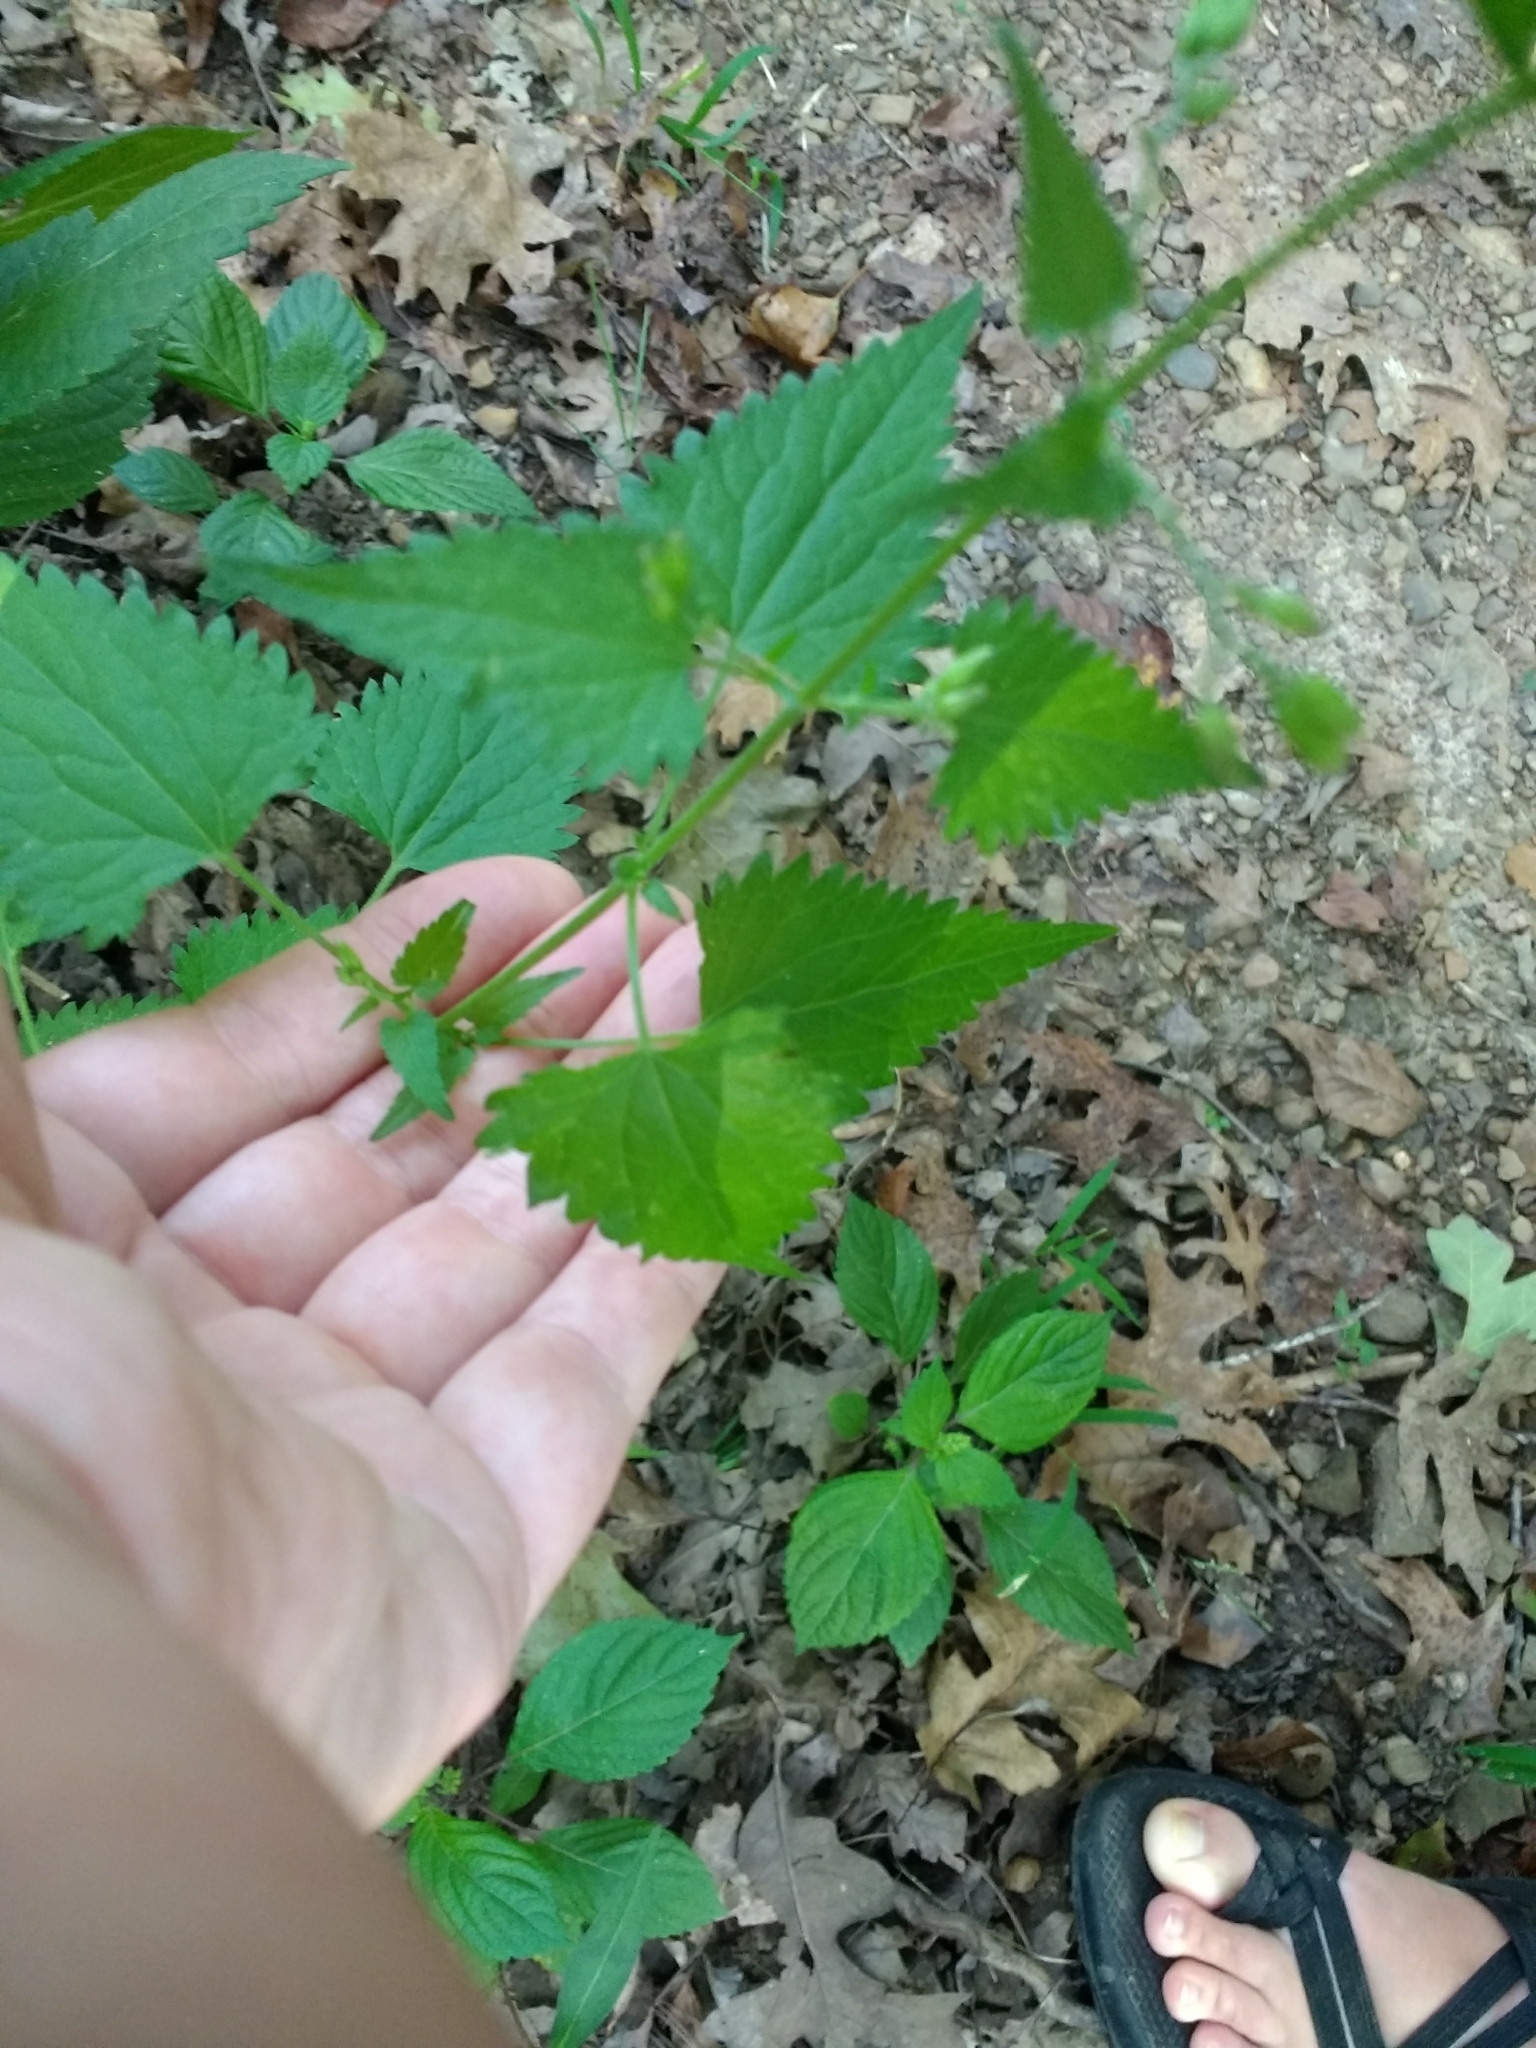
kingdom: Plantae
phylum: Tracheophyta
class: Magnoliopsida
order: Asterales
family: Asteraceae
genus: Fleischmannia
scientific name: Fleischmannia incarnata
